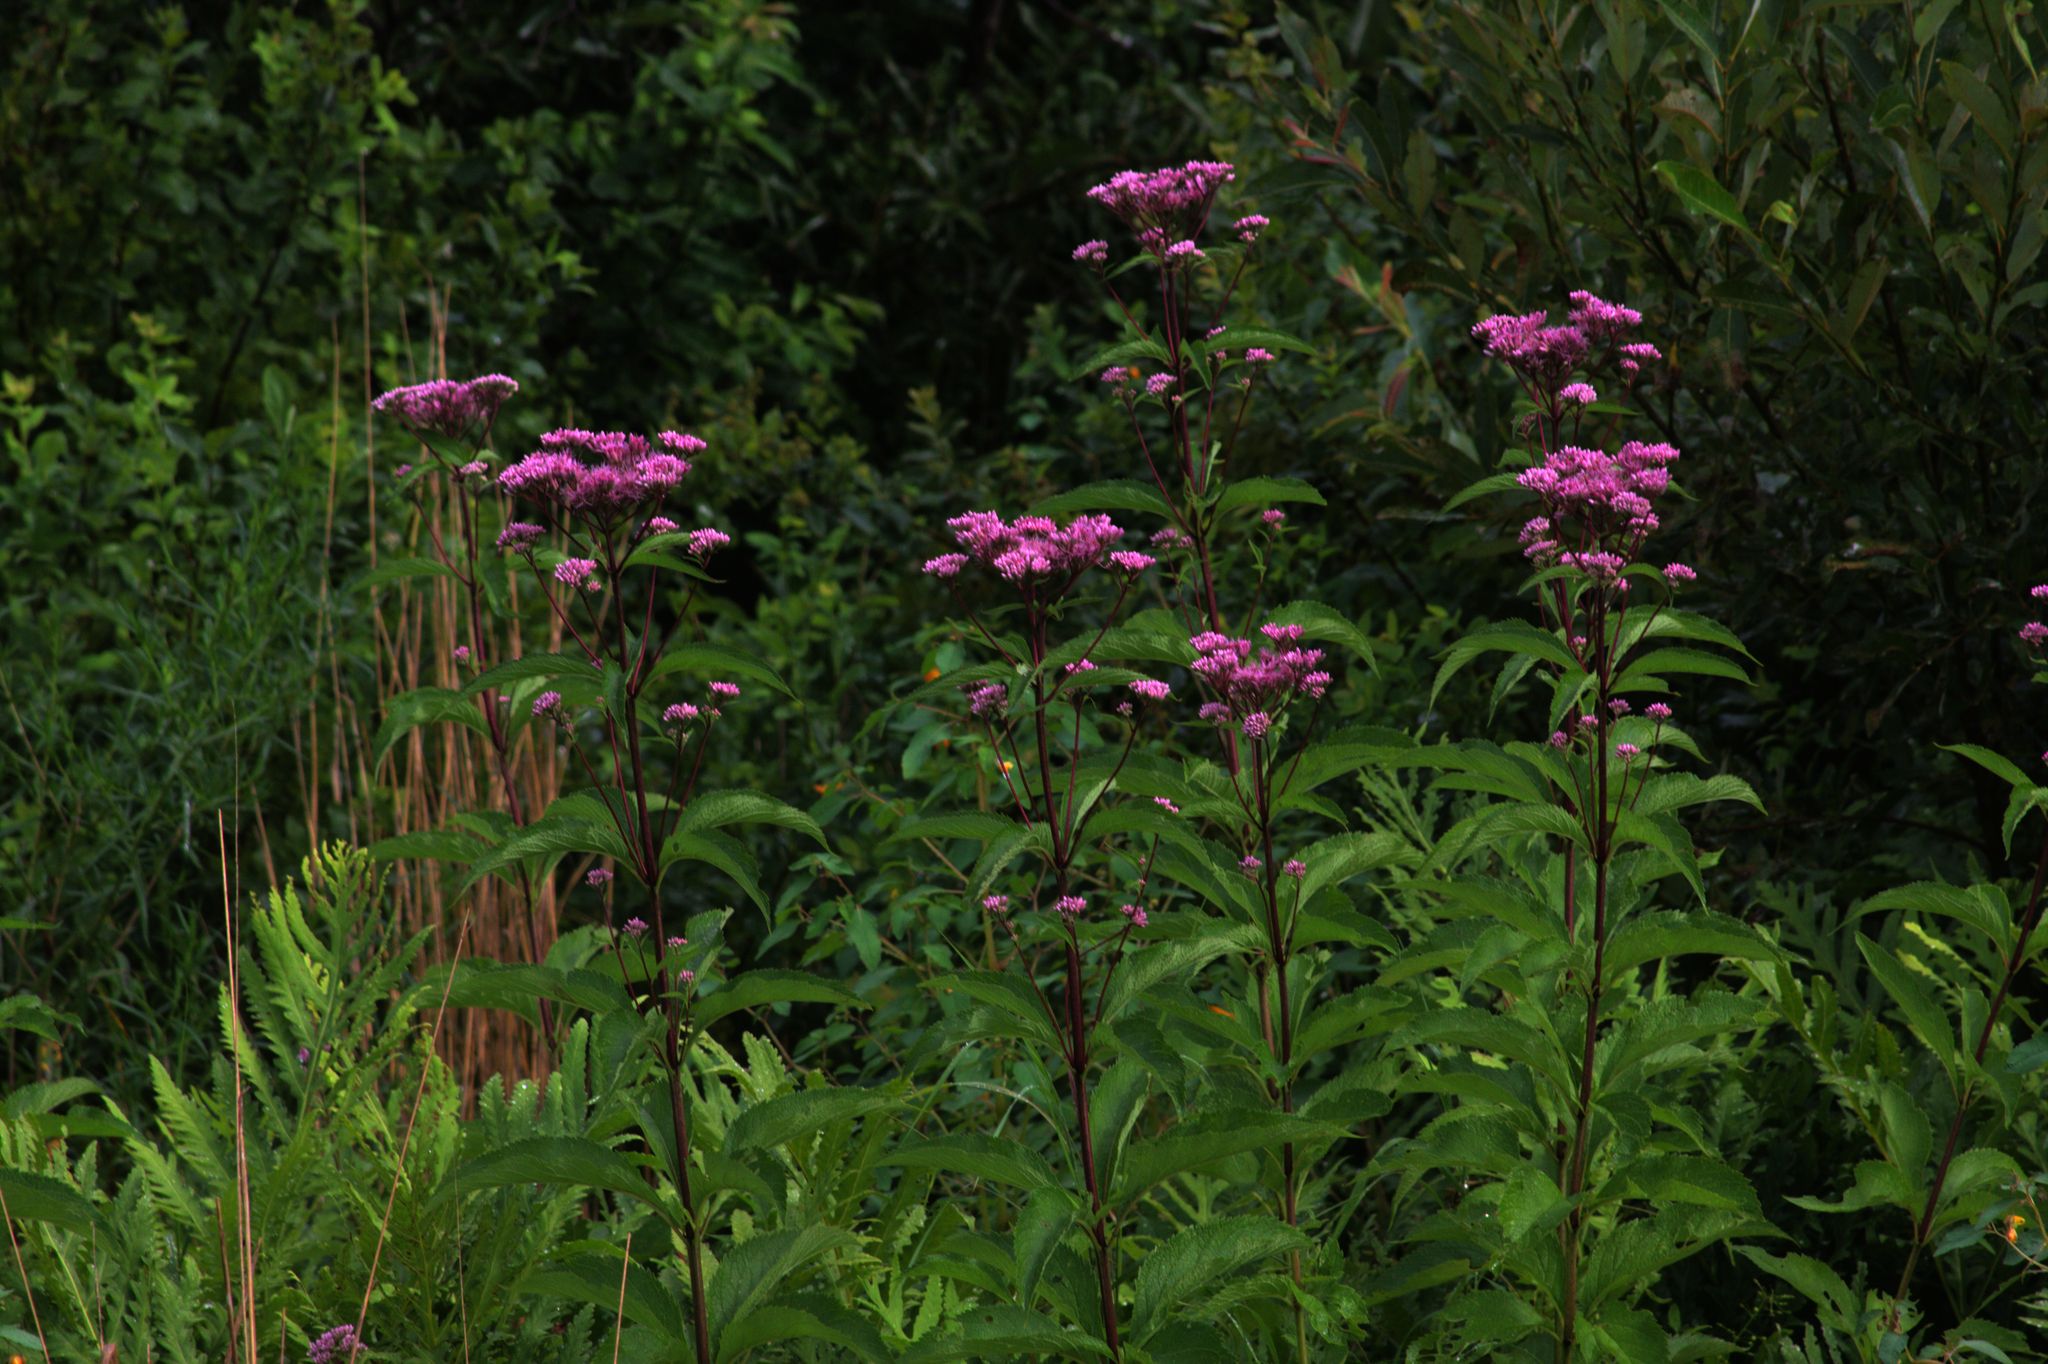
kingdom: Plantae
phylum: Tracheophyta
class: Magnoliopsida
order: Asterales
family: Asteraceae
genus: Eutrochium
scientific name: Eutrochium maculatum
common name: Spotted joe pye weed
